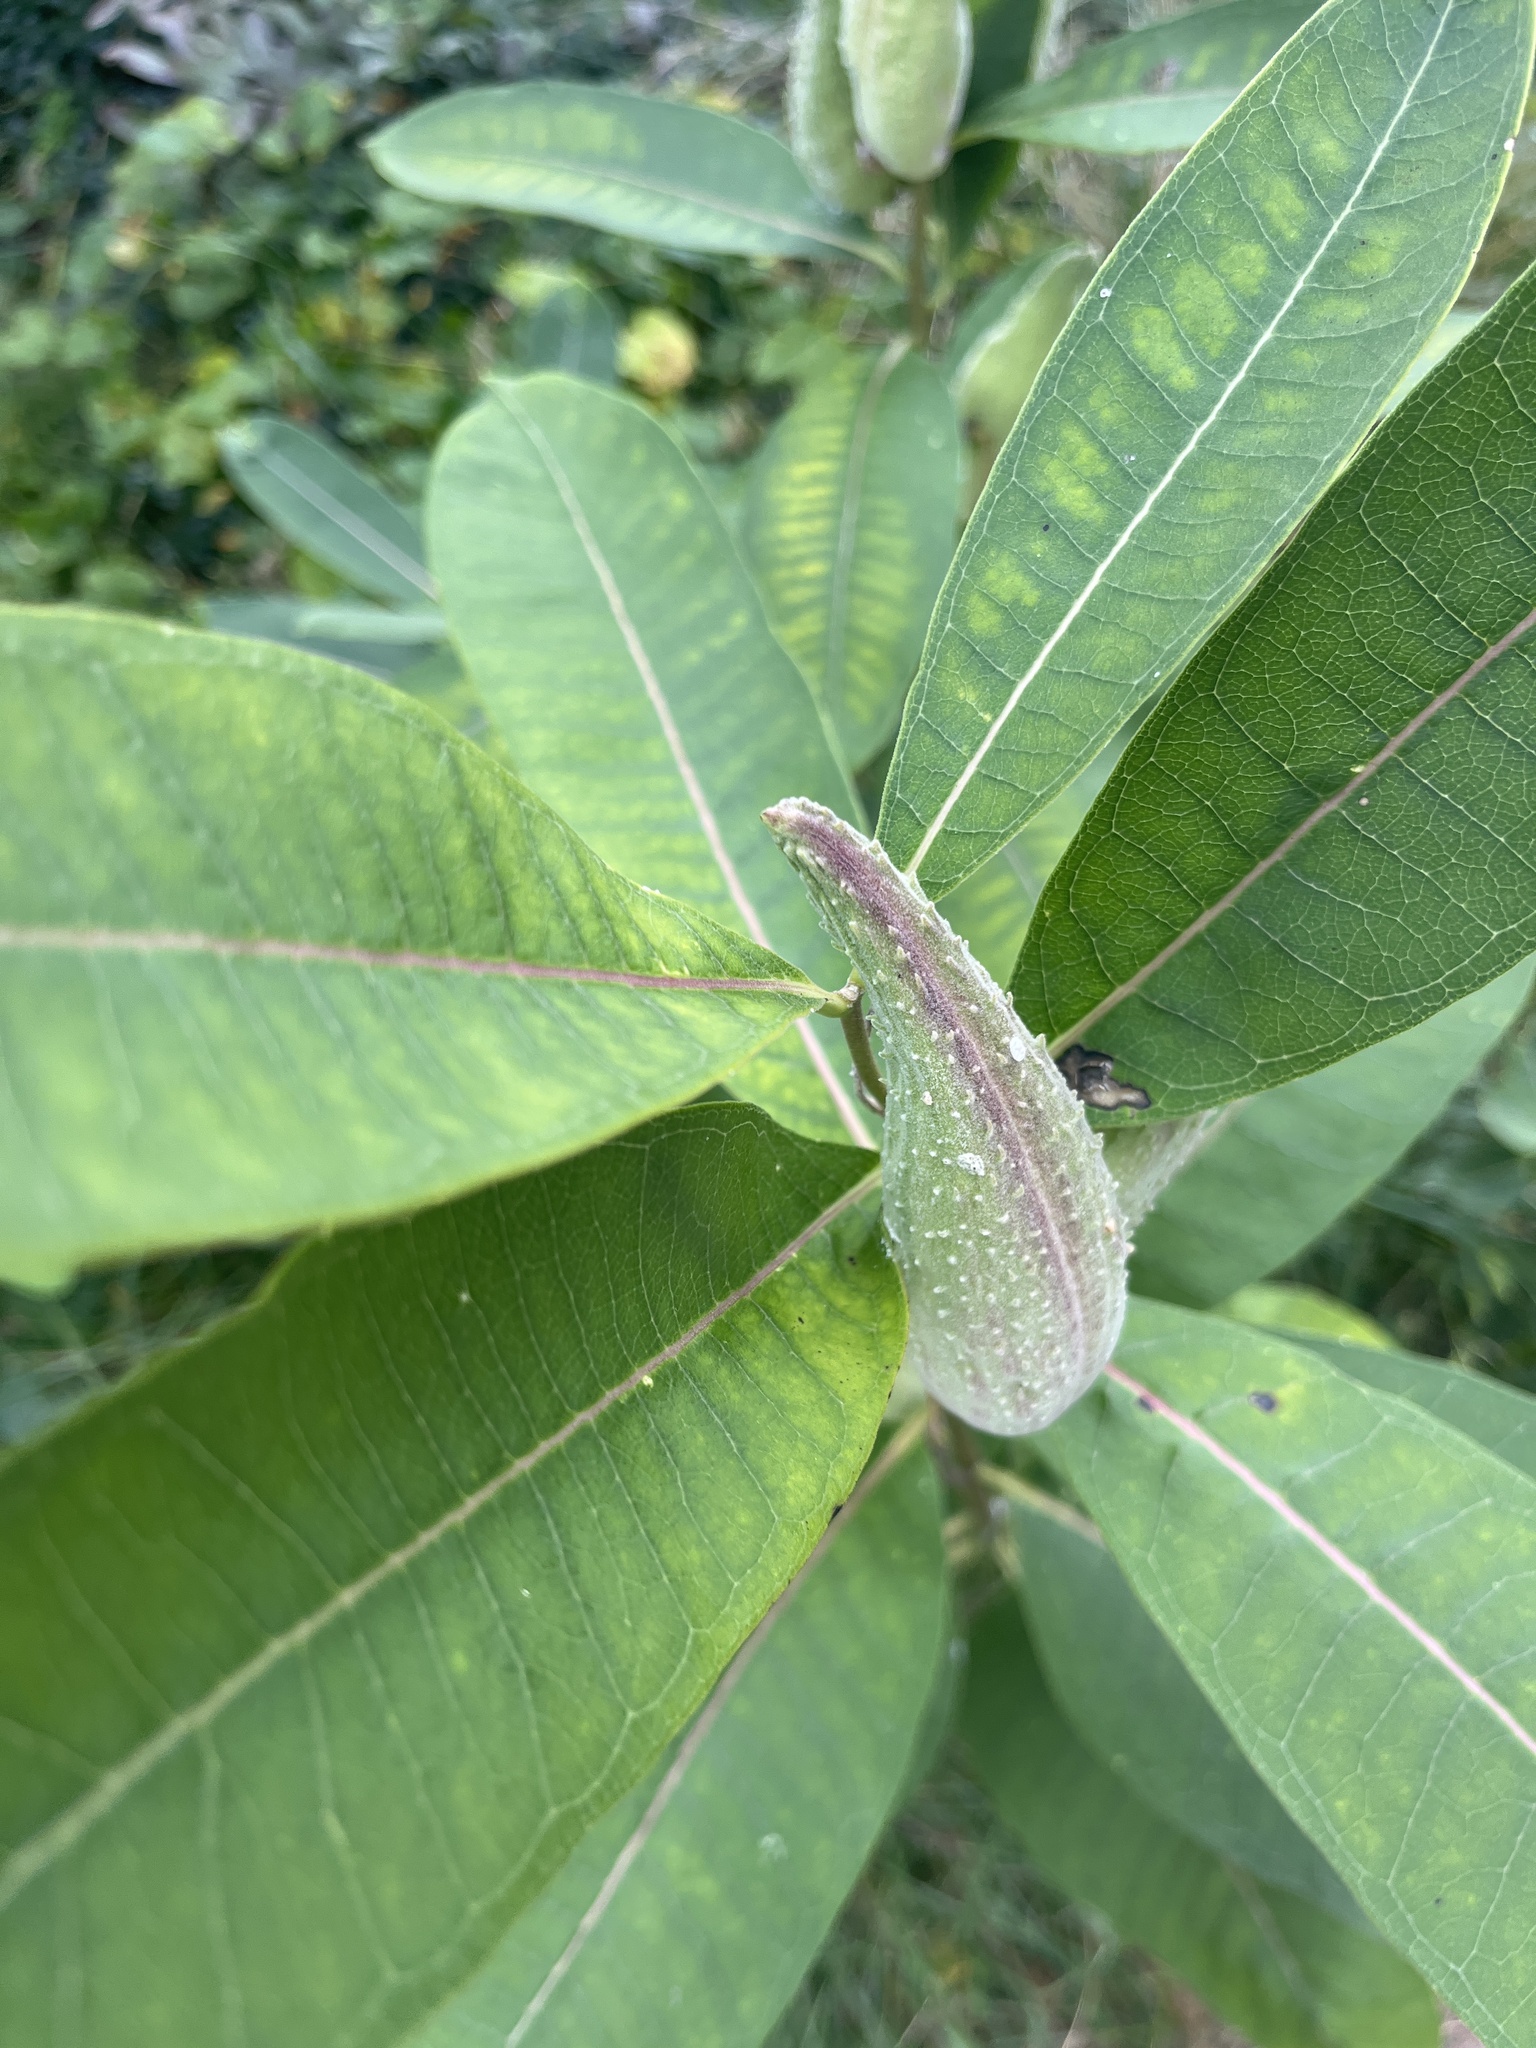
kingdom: Plantae
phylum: Tracheophyta
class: Magnoliopsida
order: Gentianales
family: Apocynaceae
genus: Asclepias
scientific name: Asclepias syriaca
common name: Common milkweed
